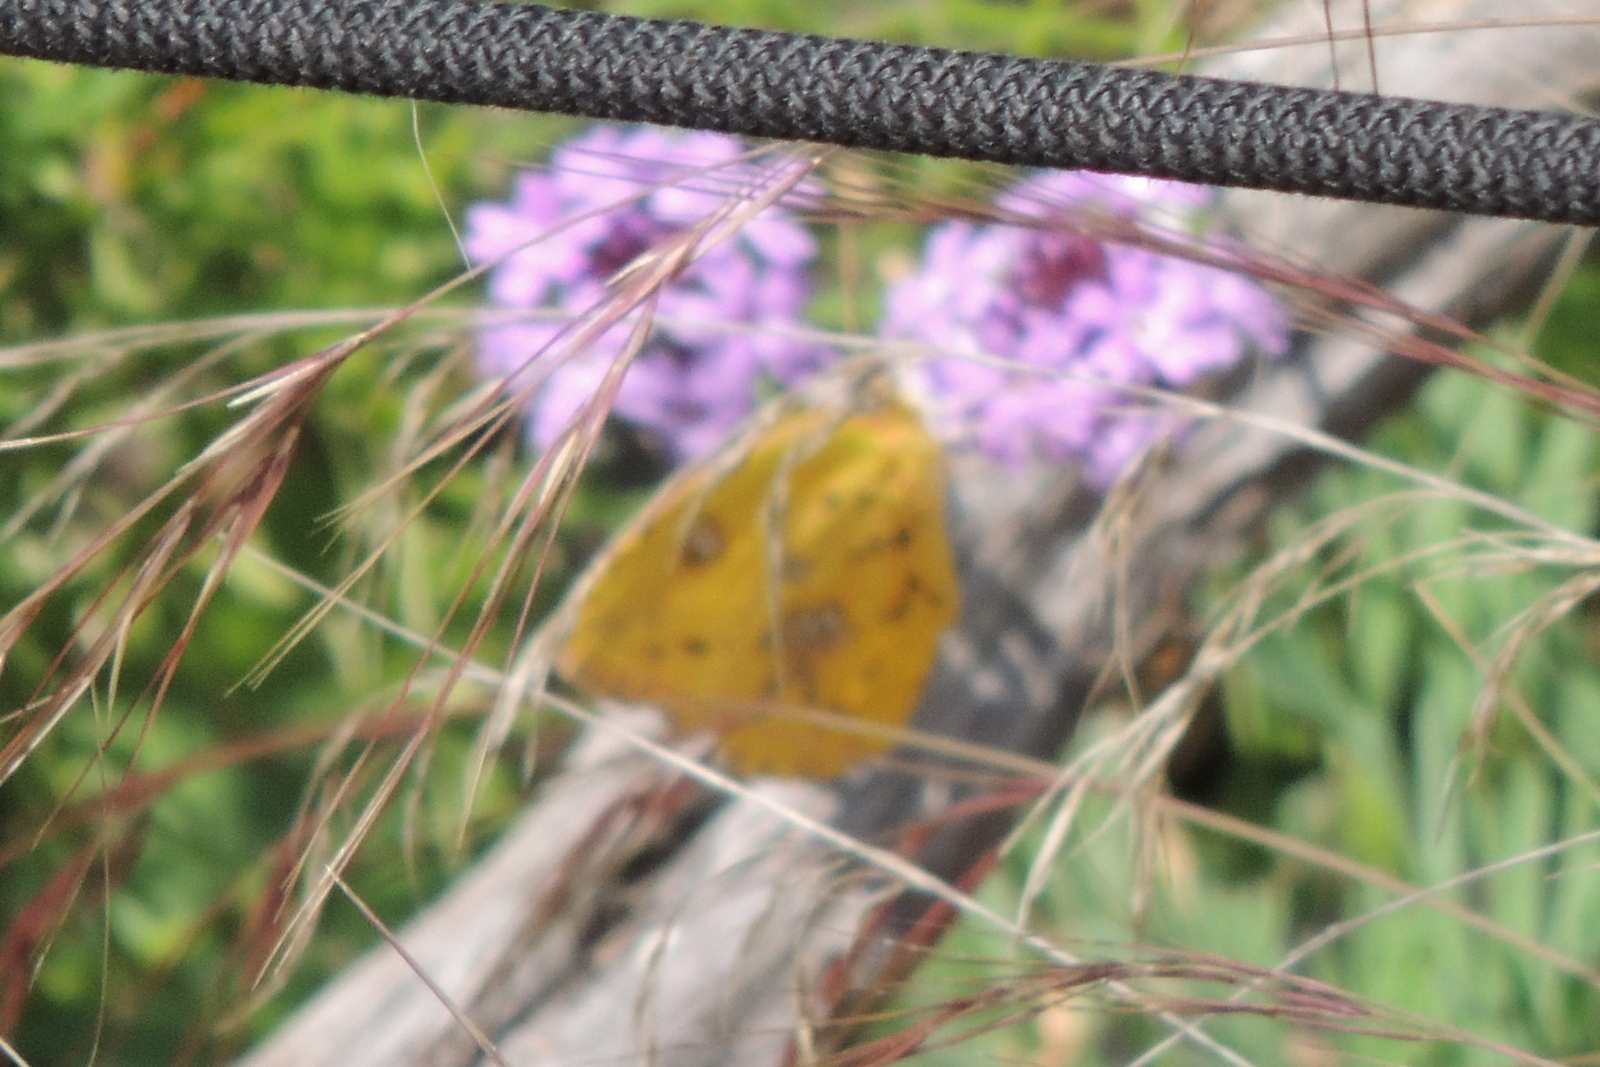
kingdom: Animalia
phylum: Arthropoda
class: Insecta
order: Lepidoptera
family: Pieridae
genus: Phoebis
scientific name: Phoebis sennae
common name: Cloudless sulphur
